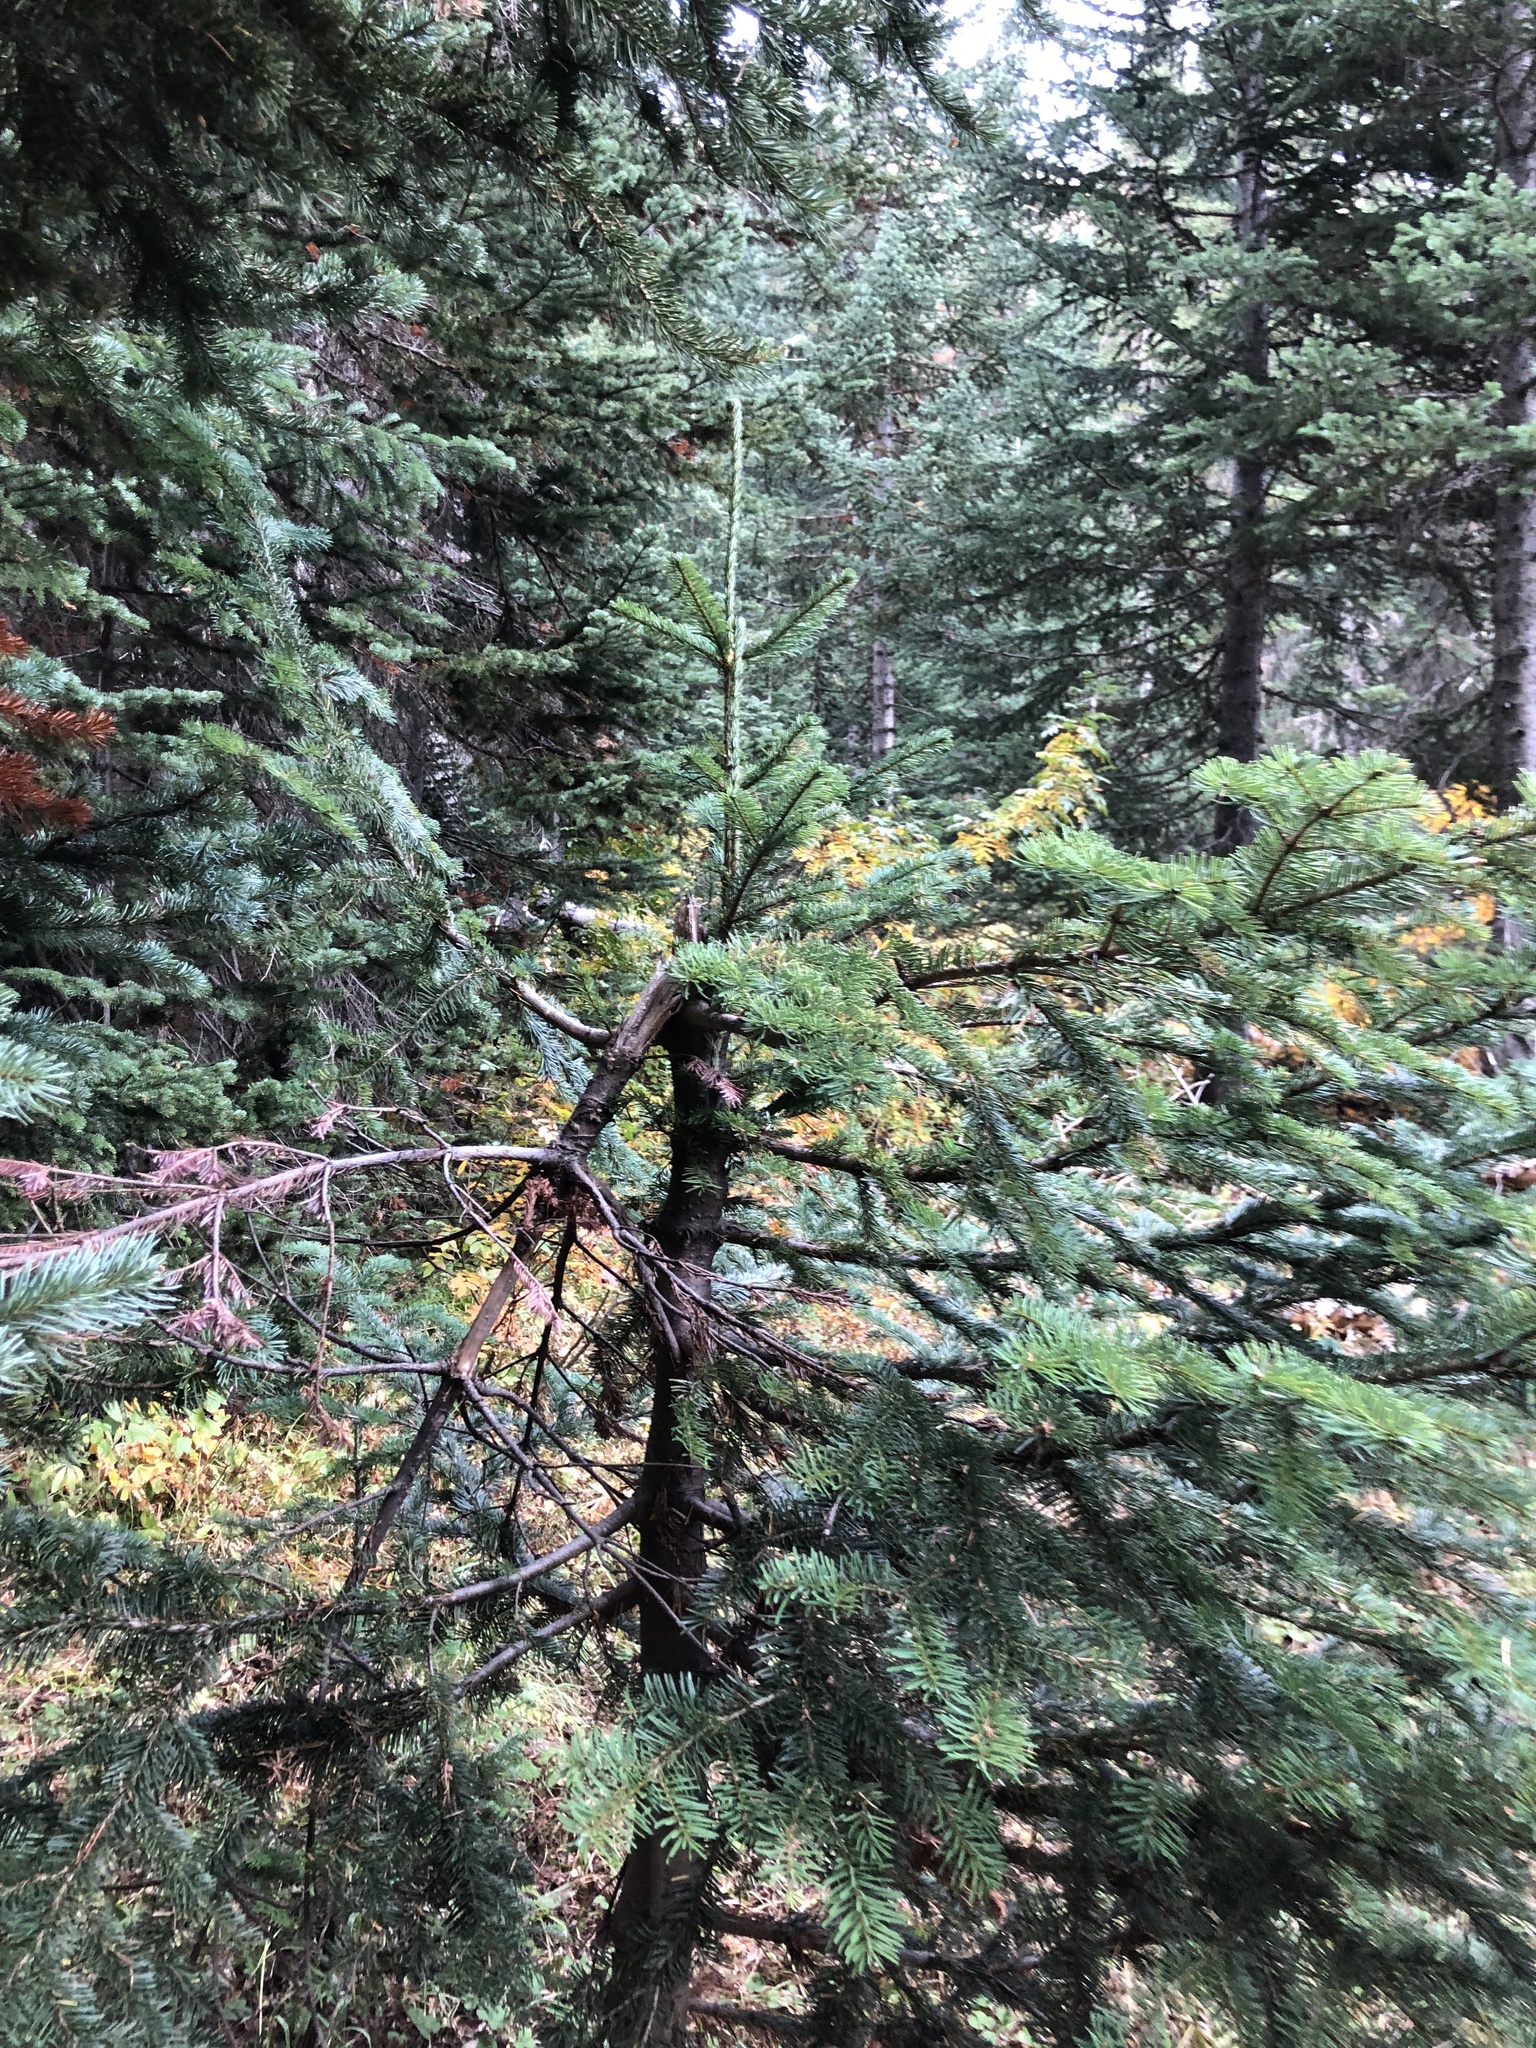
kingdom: Plantae
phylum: Tracheophyta
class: Pinopsida
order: Pinales
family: Pinaceae
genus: Abies
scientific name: Abies amabilis
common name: Pacific silver fir
